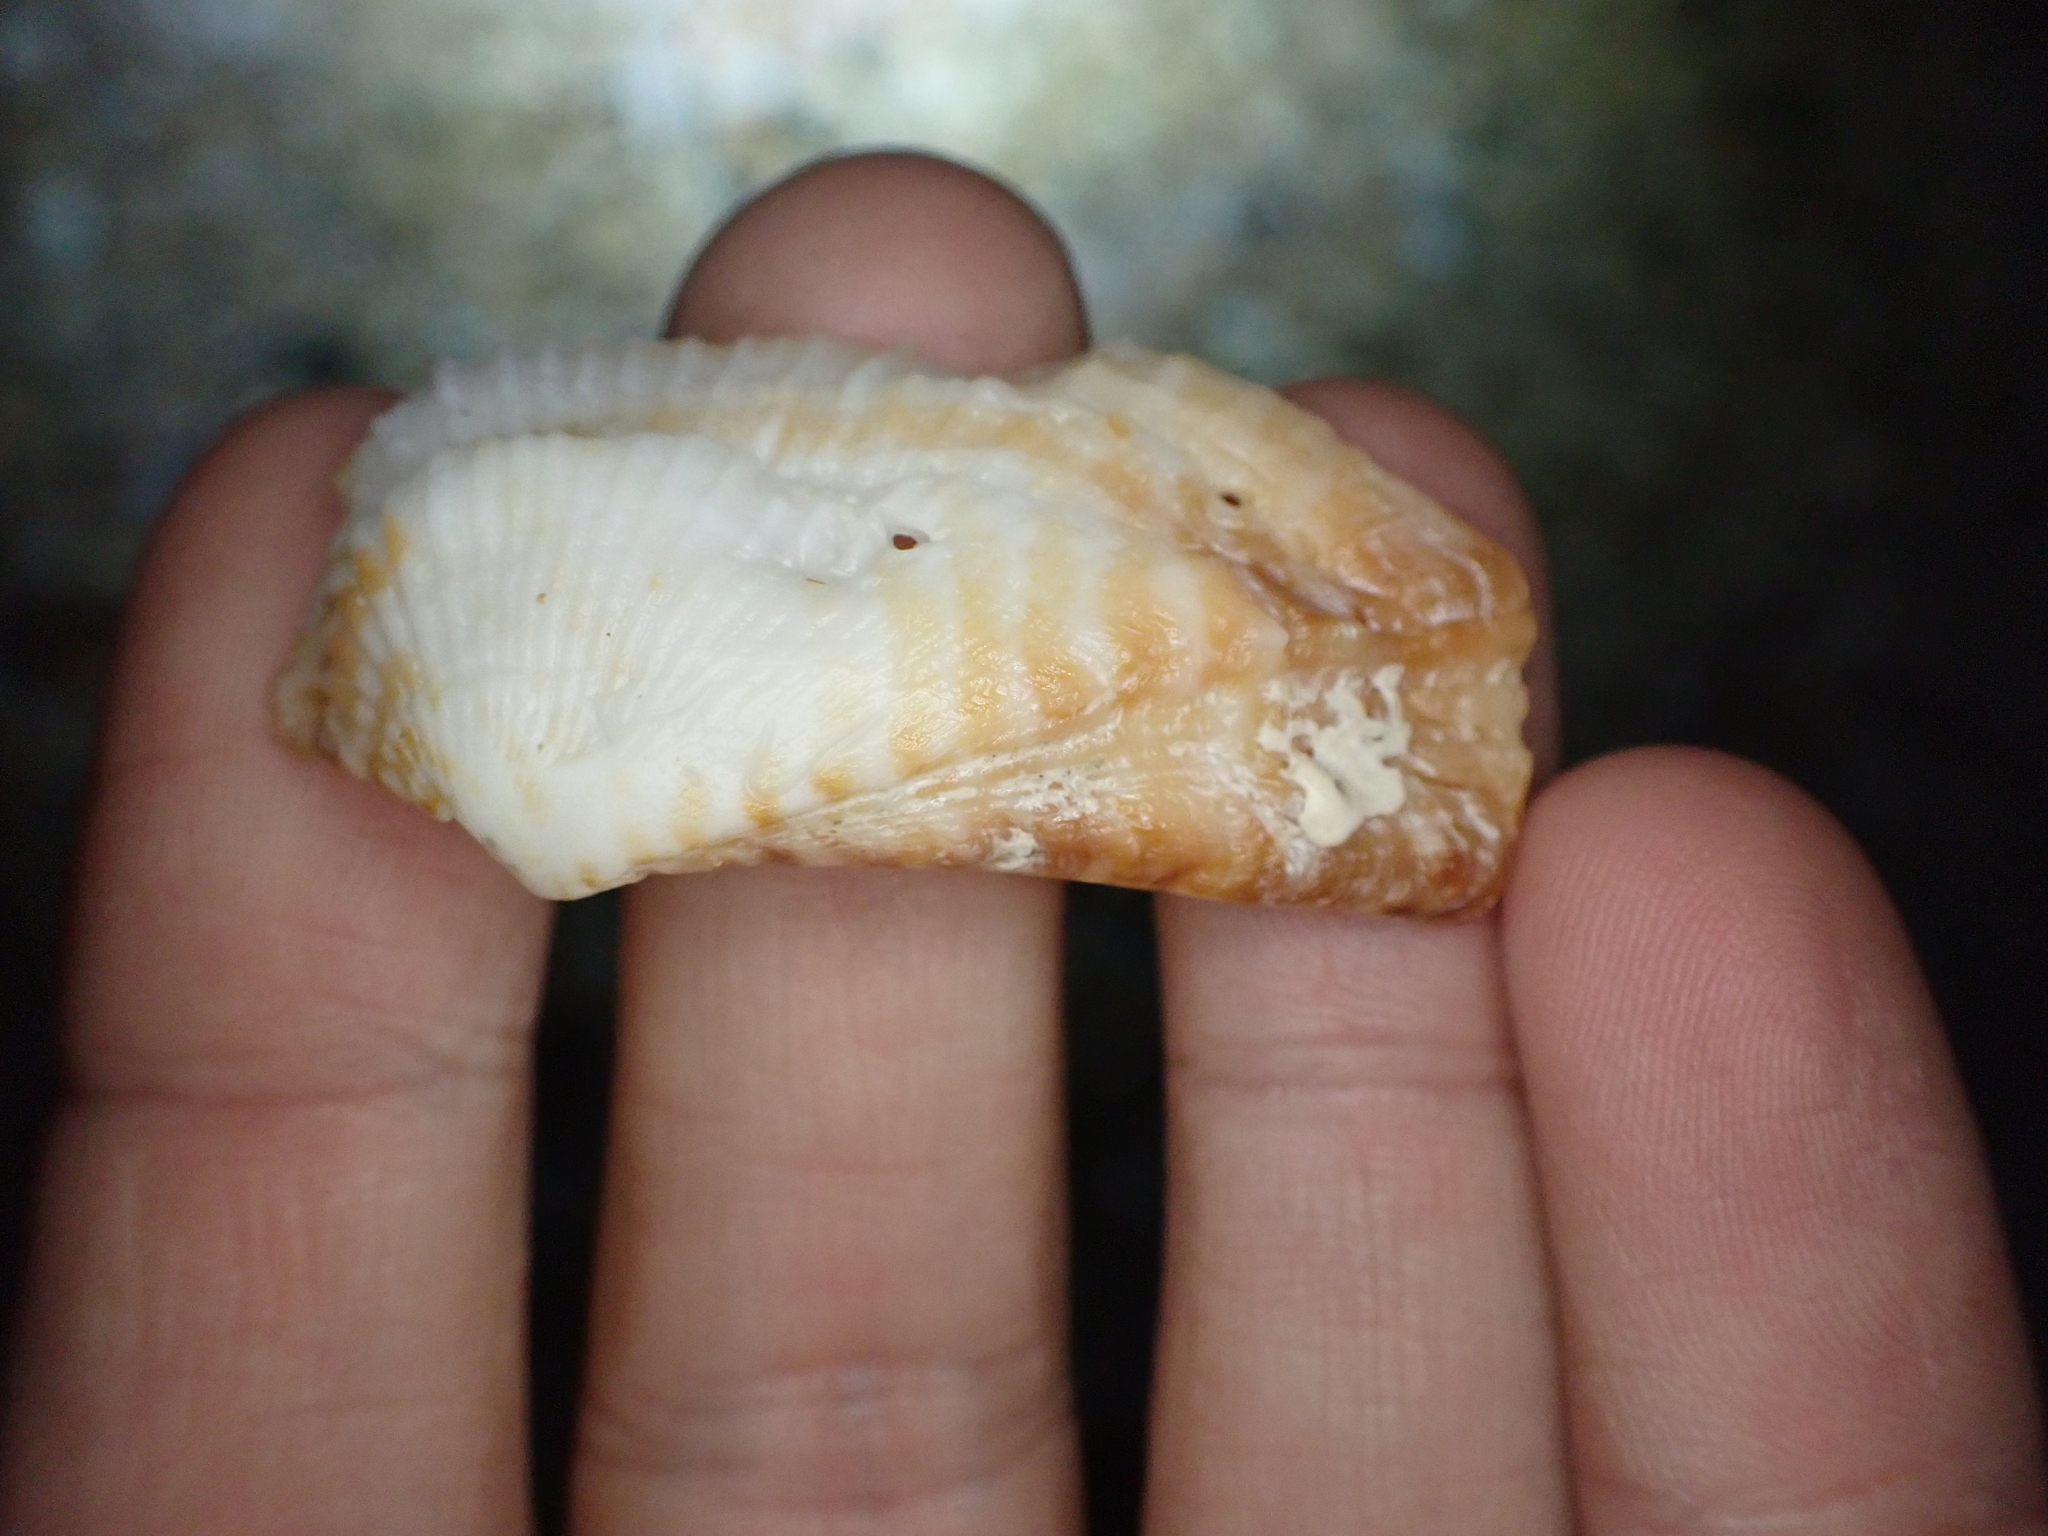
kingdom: Animalia
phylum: Mollusca
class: Bivalvia
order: Arcida
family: Arcidae
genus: Arca
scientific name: Arca zebra
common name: Atlantic turkey wing
